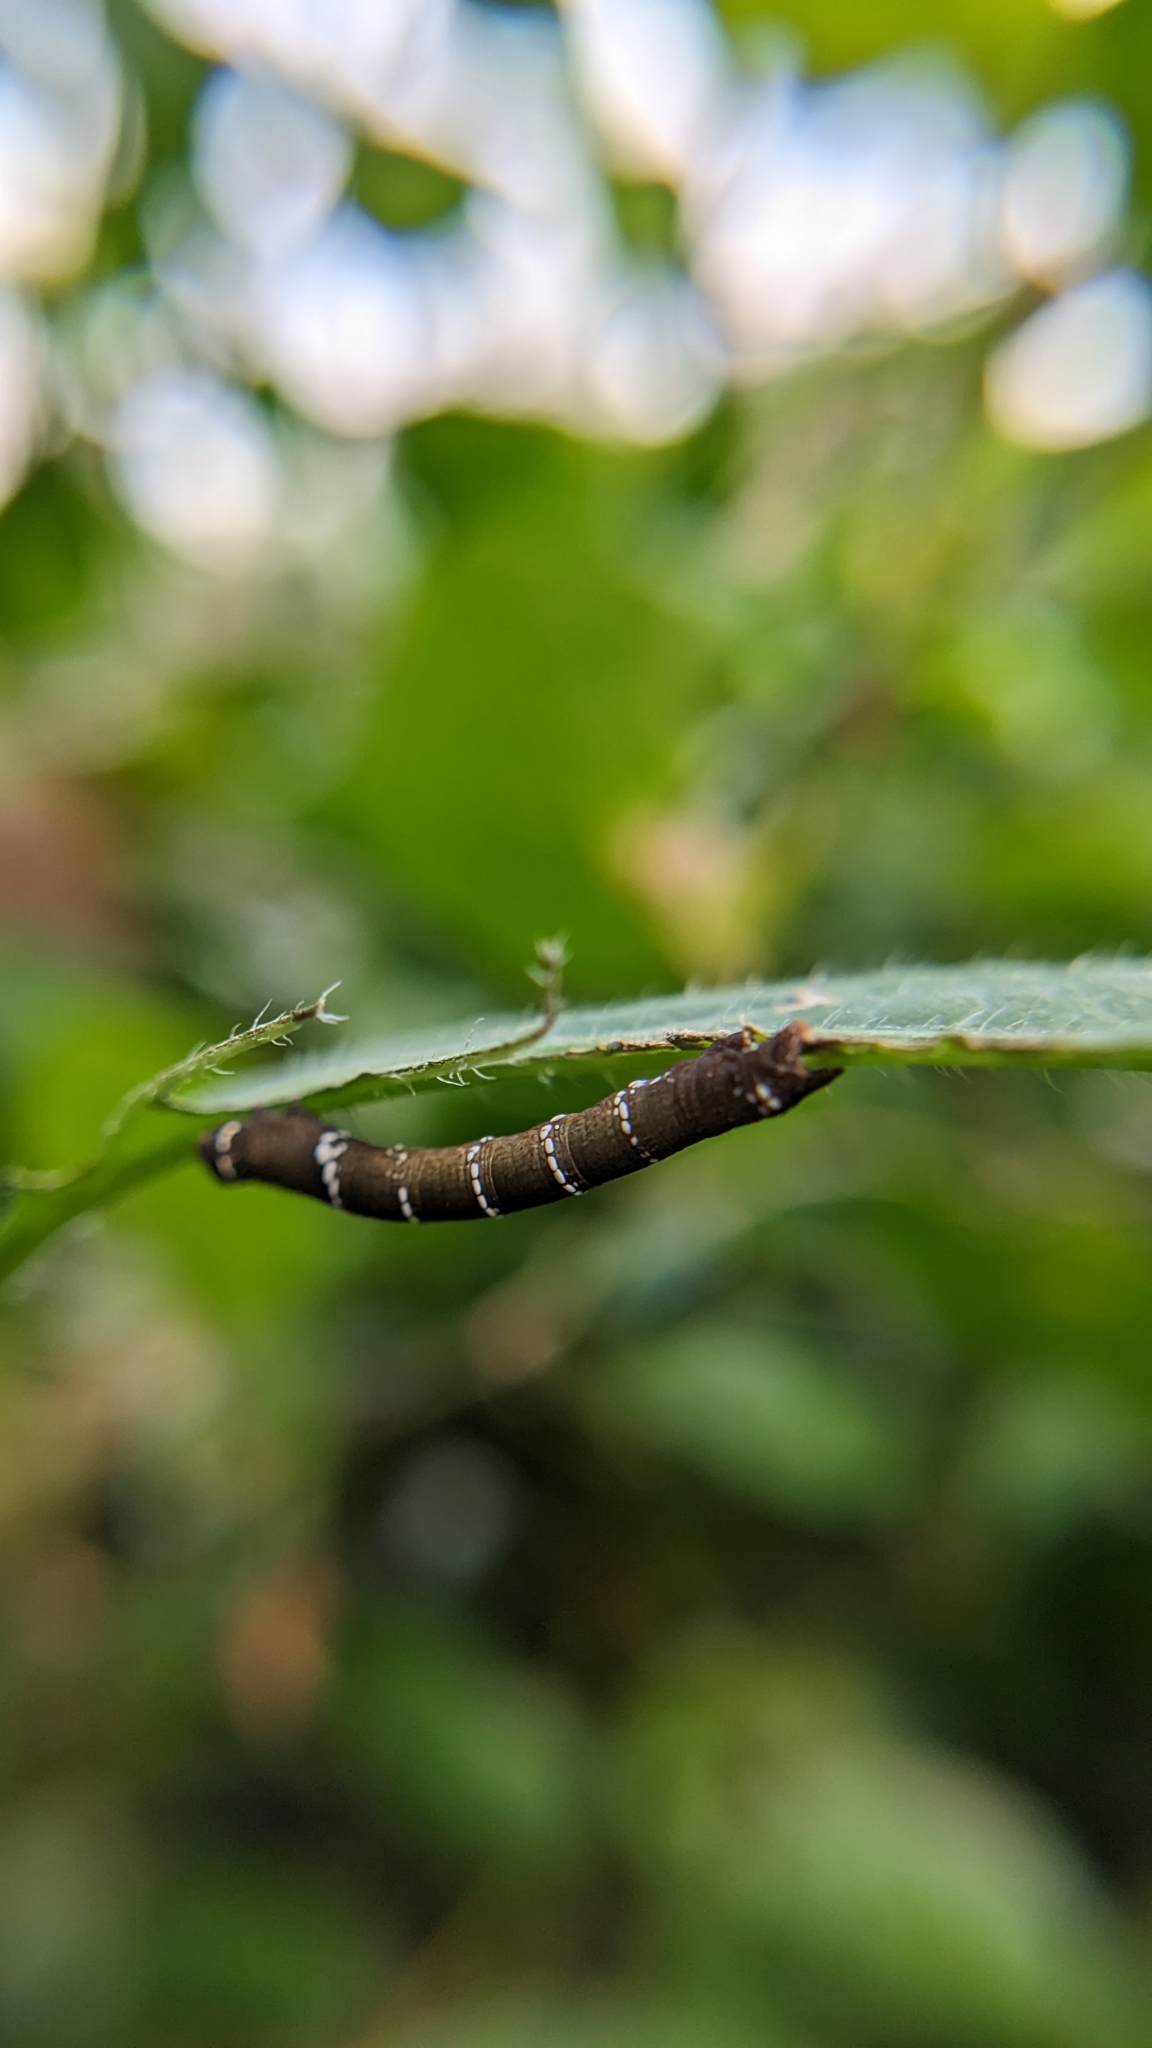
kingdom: Animalia
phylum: Arthropoda
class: Insecta
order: Lepidoptera
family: Geometridae
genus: Hyposidra
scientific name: Hyposidra talaca
